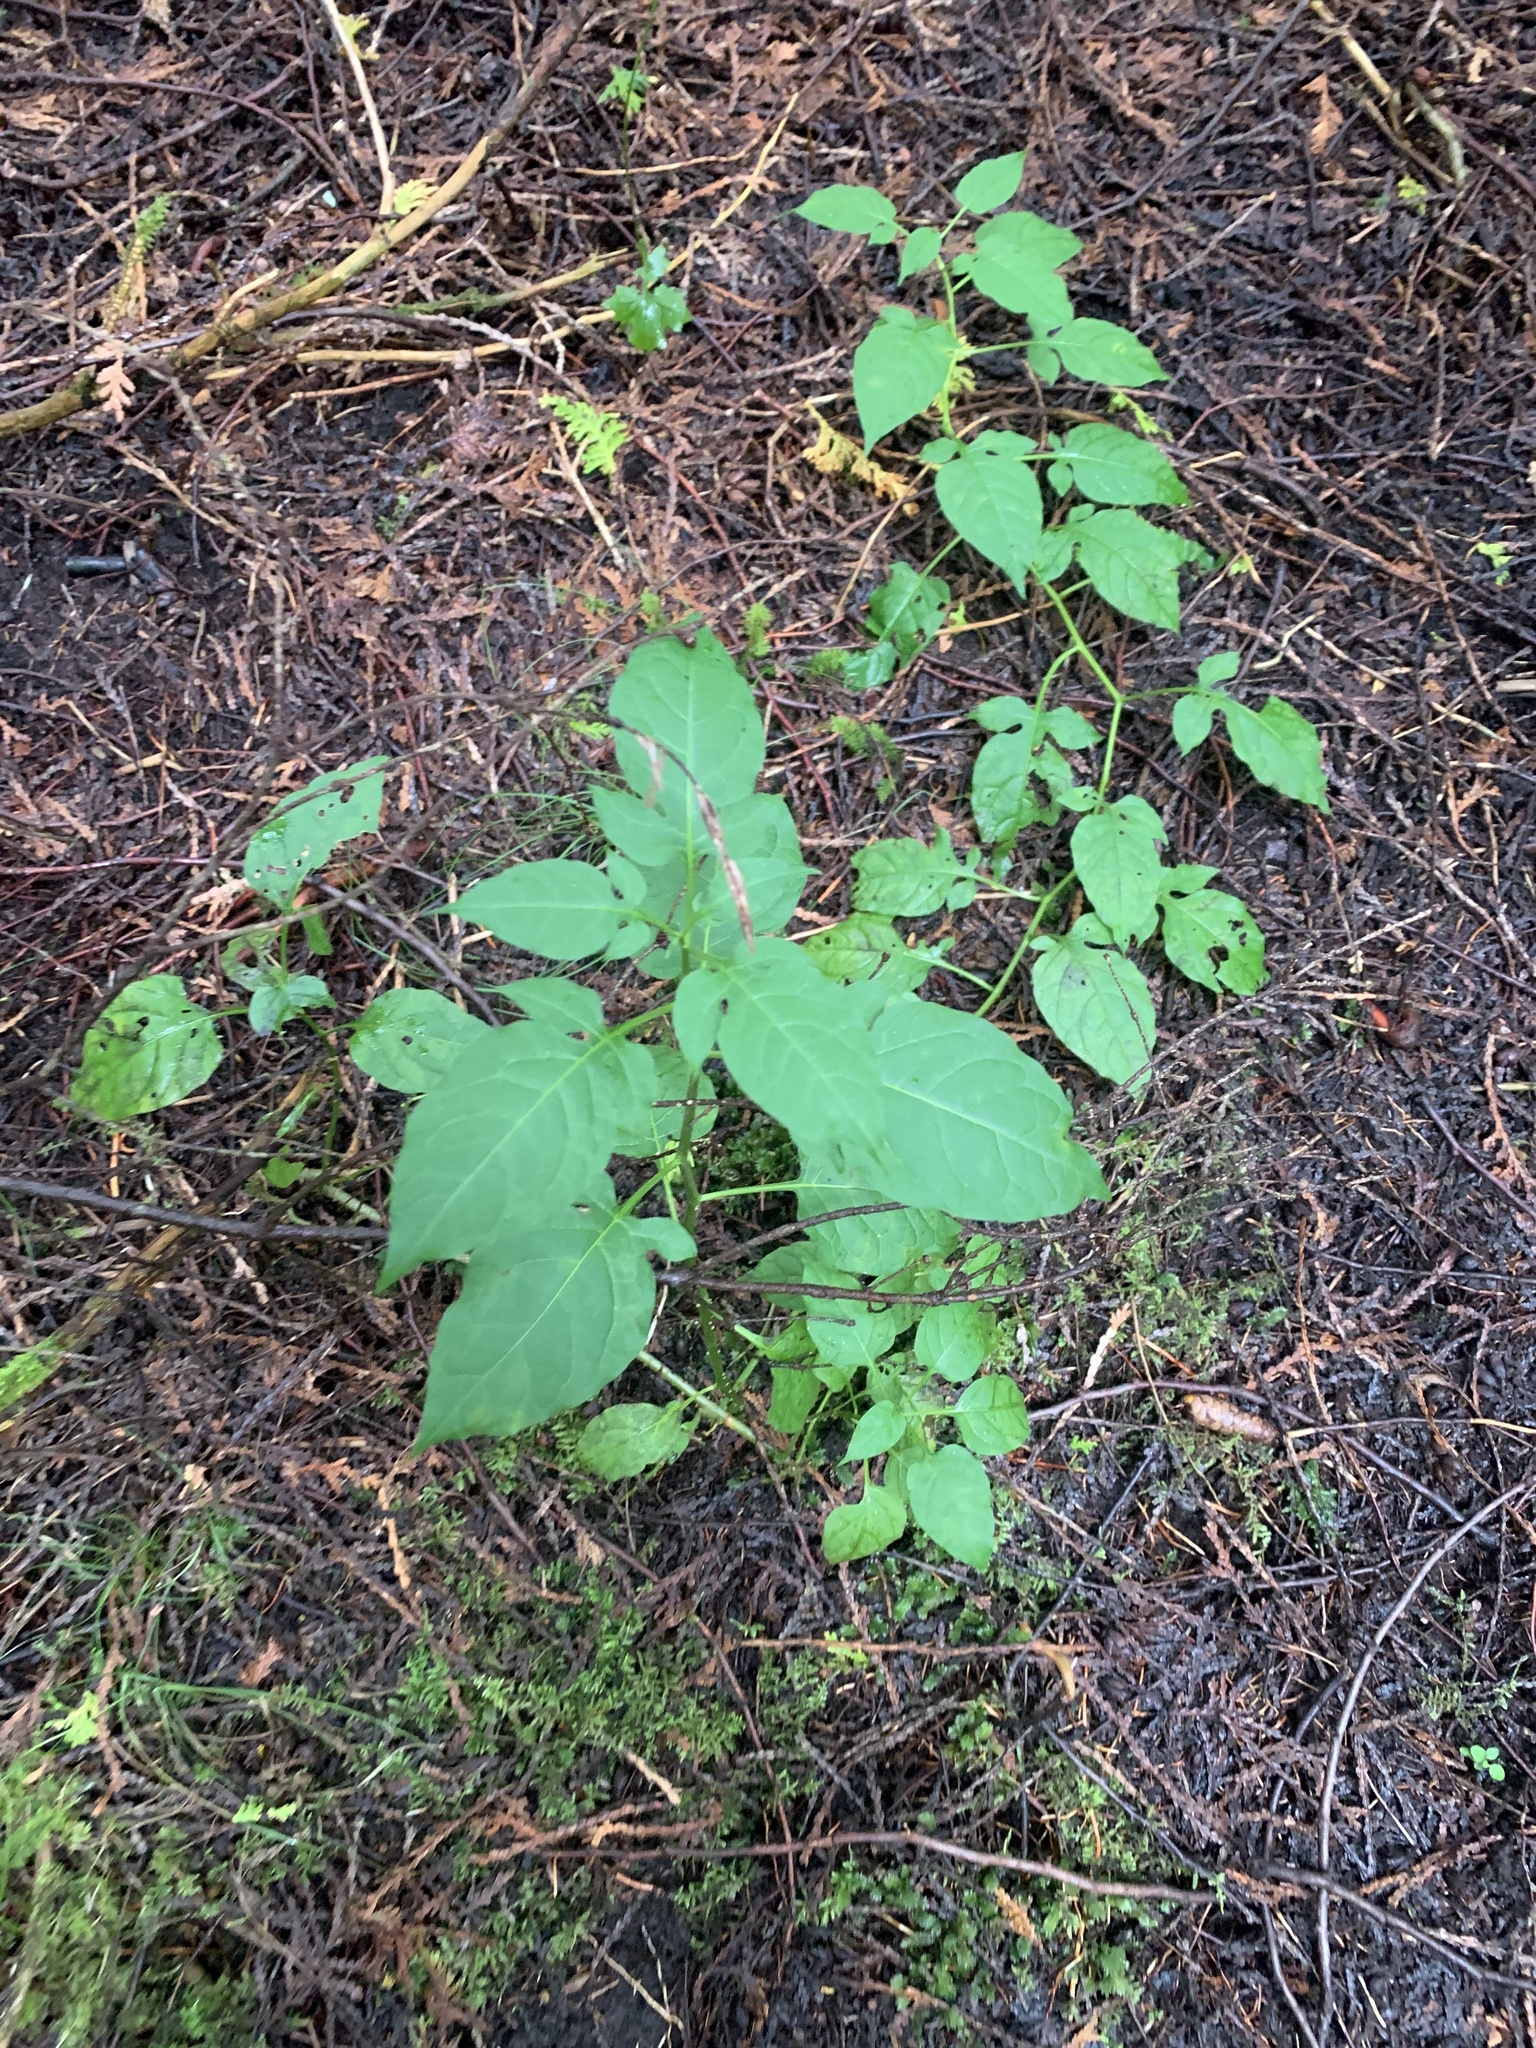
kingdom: Plantae
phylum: Tracheophyta
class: Magnoliopsida
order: Solanales
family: Solanaceae
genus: Solanum
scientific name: Solanum dulcamara
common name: Climbing nightshade
